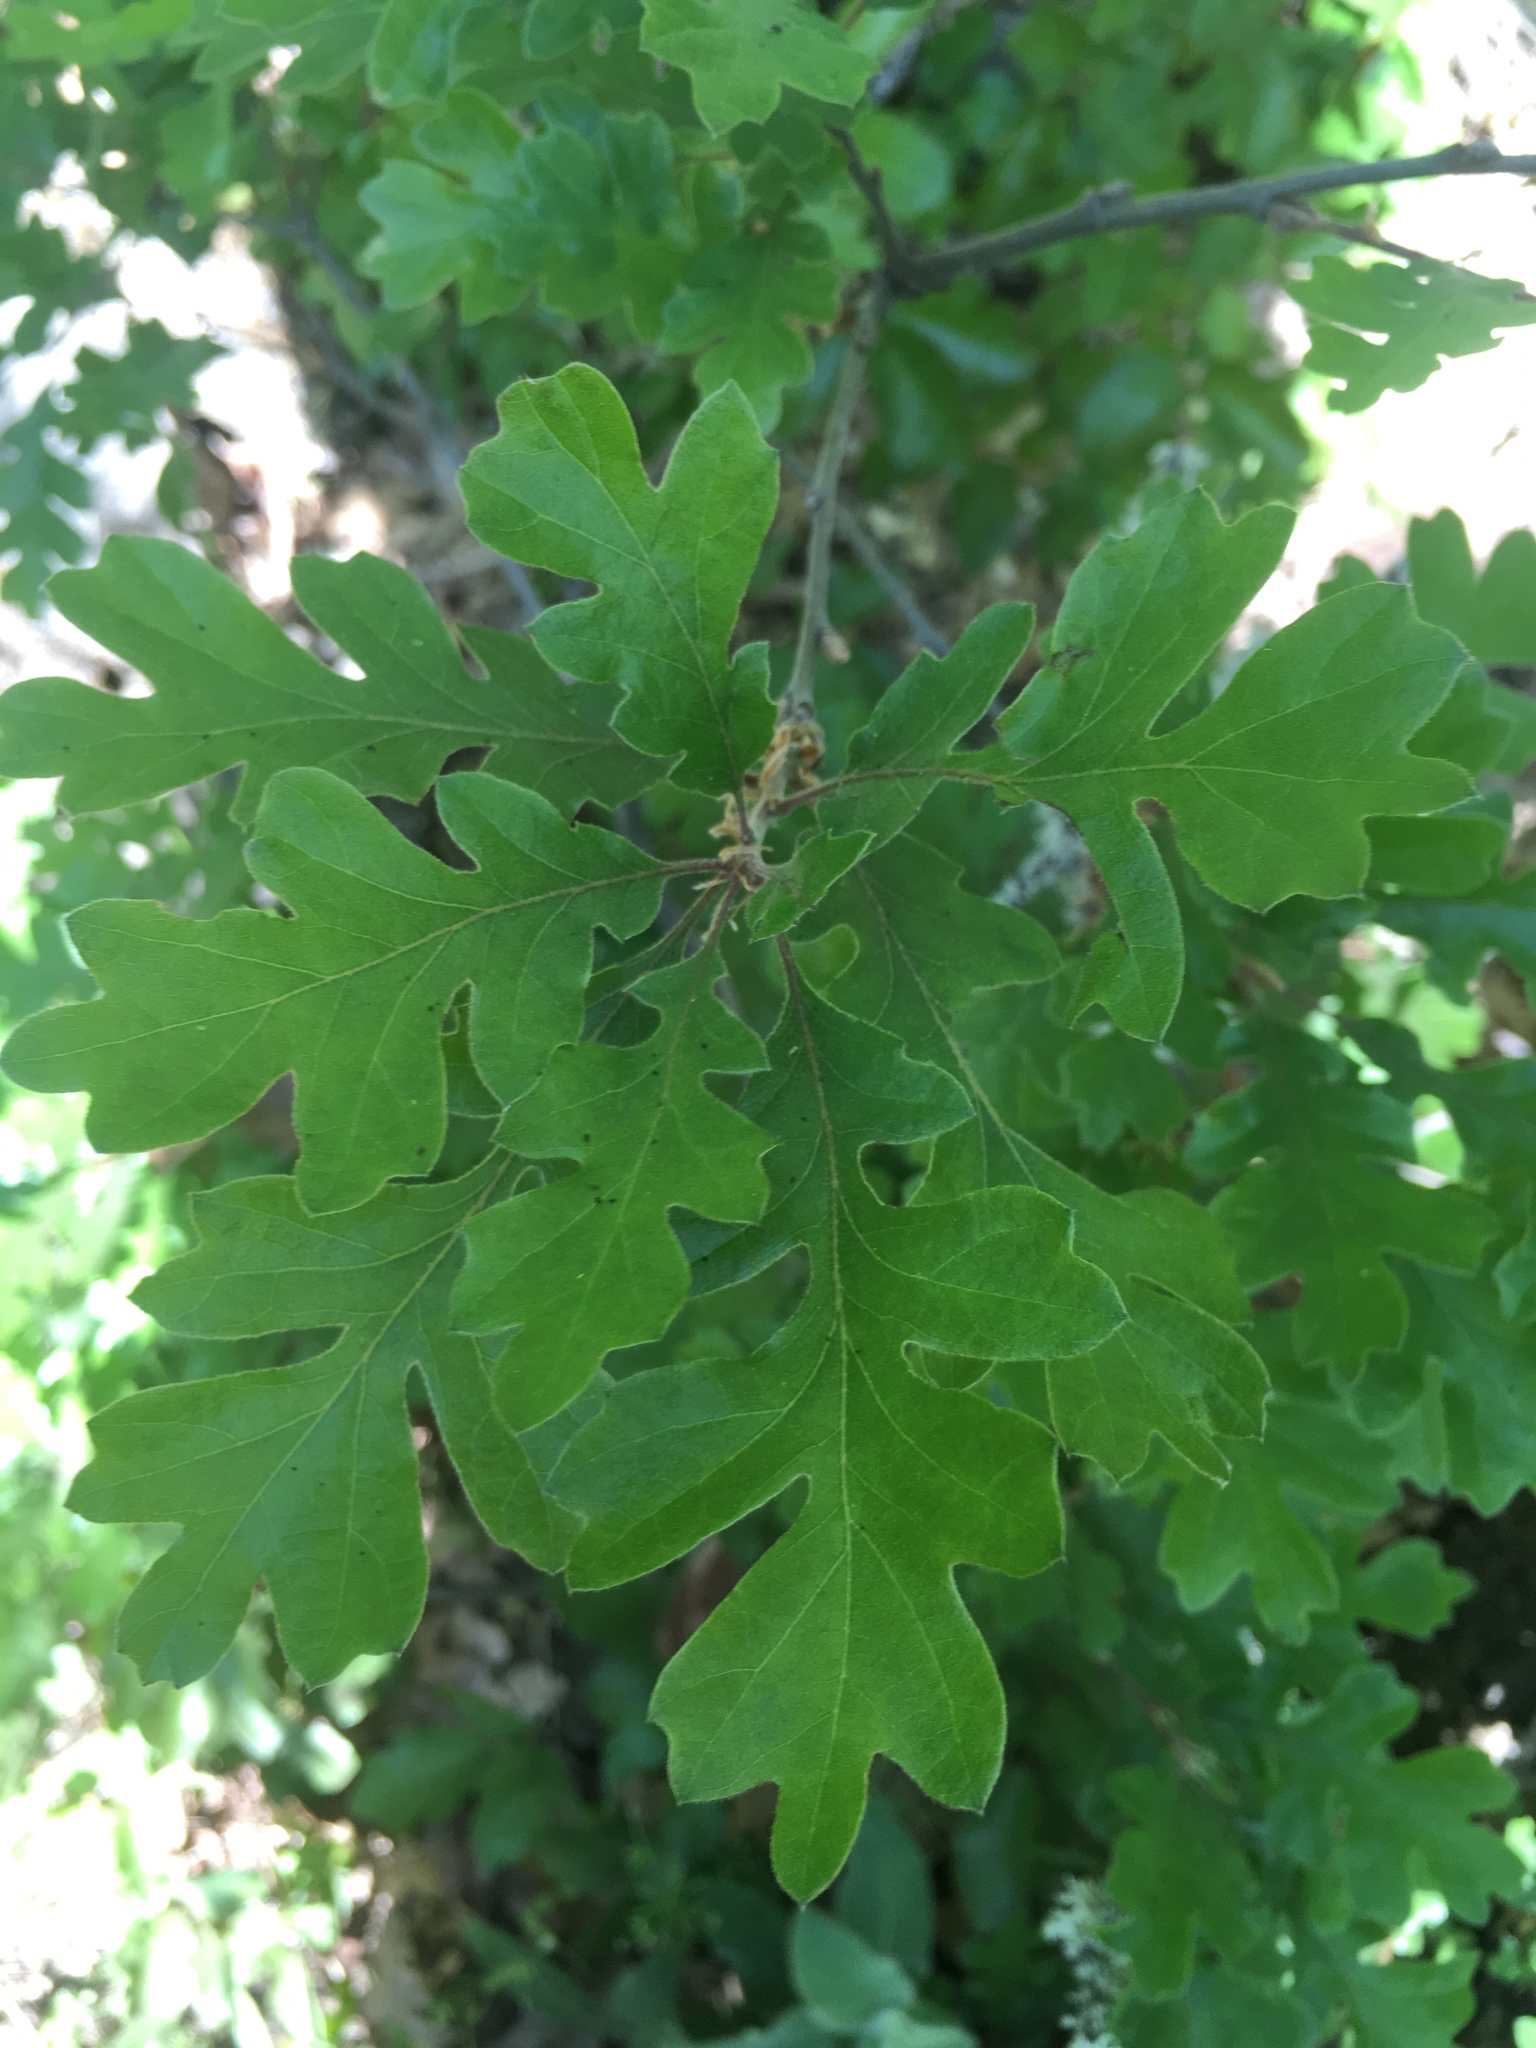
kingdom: Plantae
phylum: Tracheophyta
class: Magnoliopsida
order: Fagales
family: Fagaceae
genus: Quercus
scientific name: Quercus garryana
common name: Garry oak
